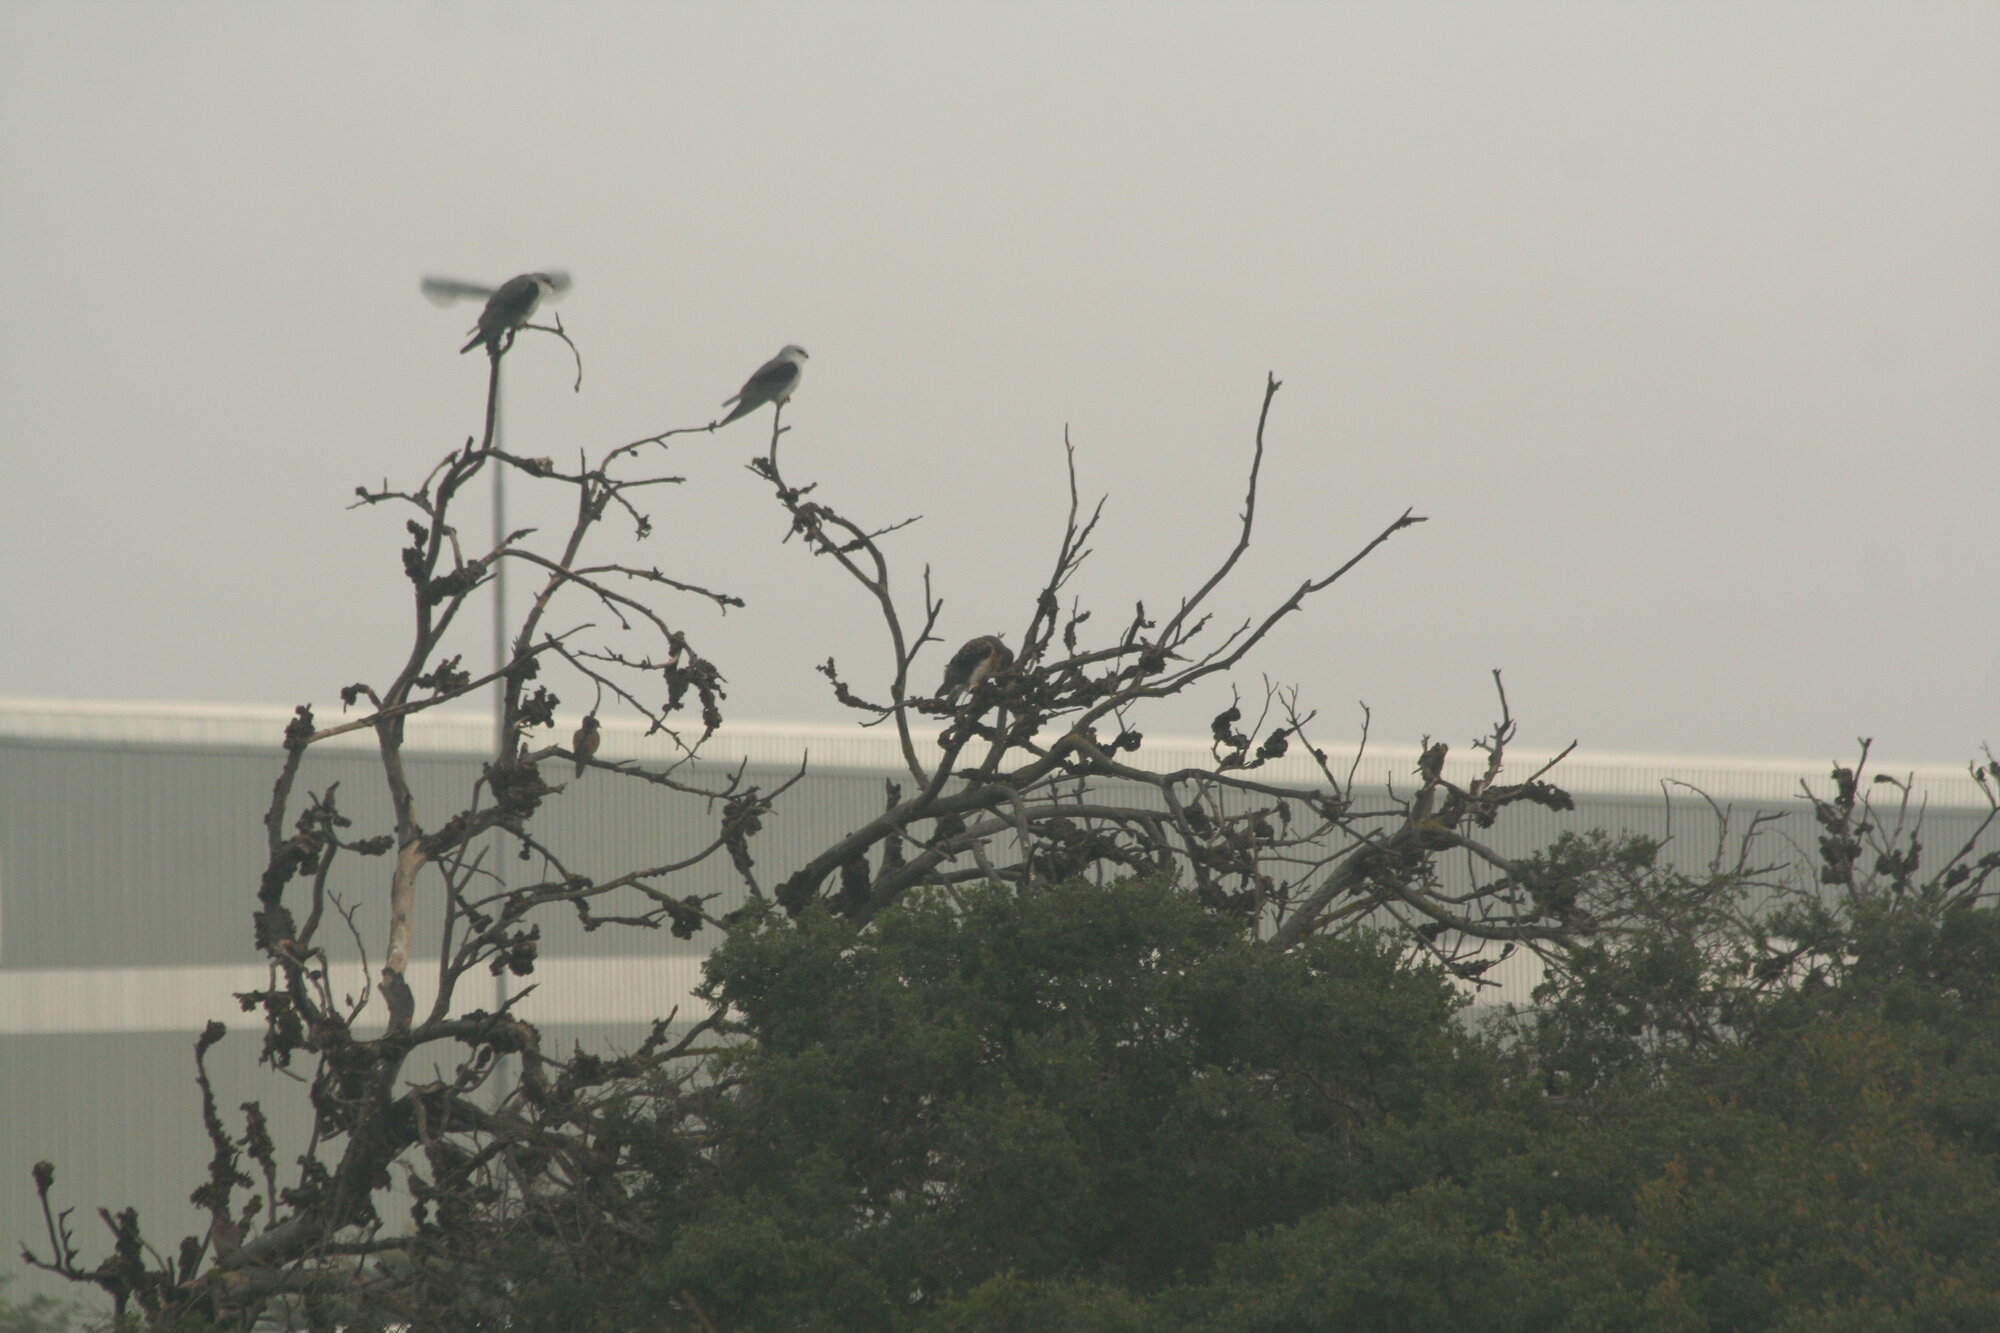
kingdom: Animalia
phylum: Chordata
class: Aves
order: Accipitriformes
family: Accipitridae
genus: Elanus
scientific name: Elanus caeruleus
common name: Black-winged kite
